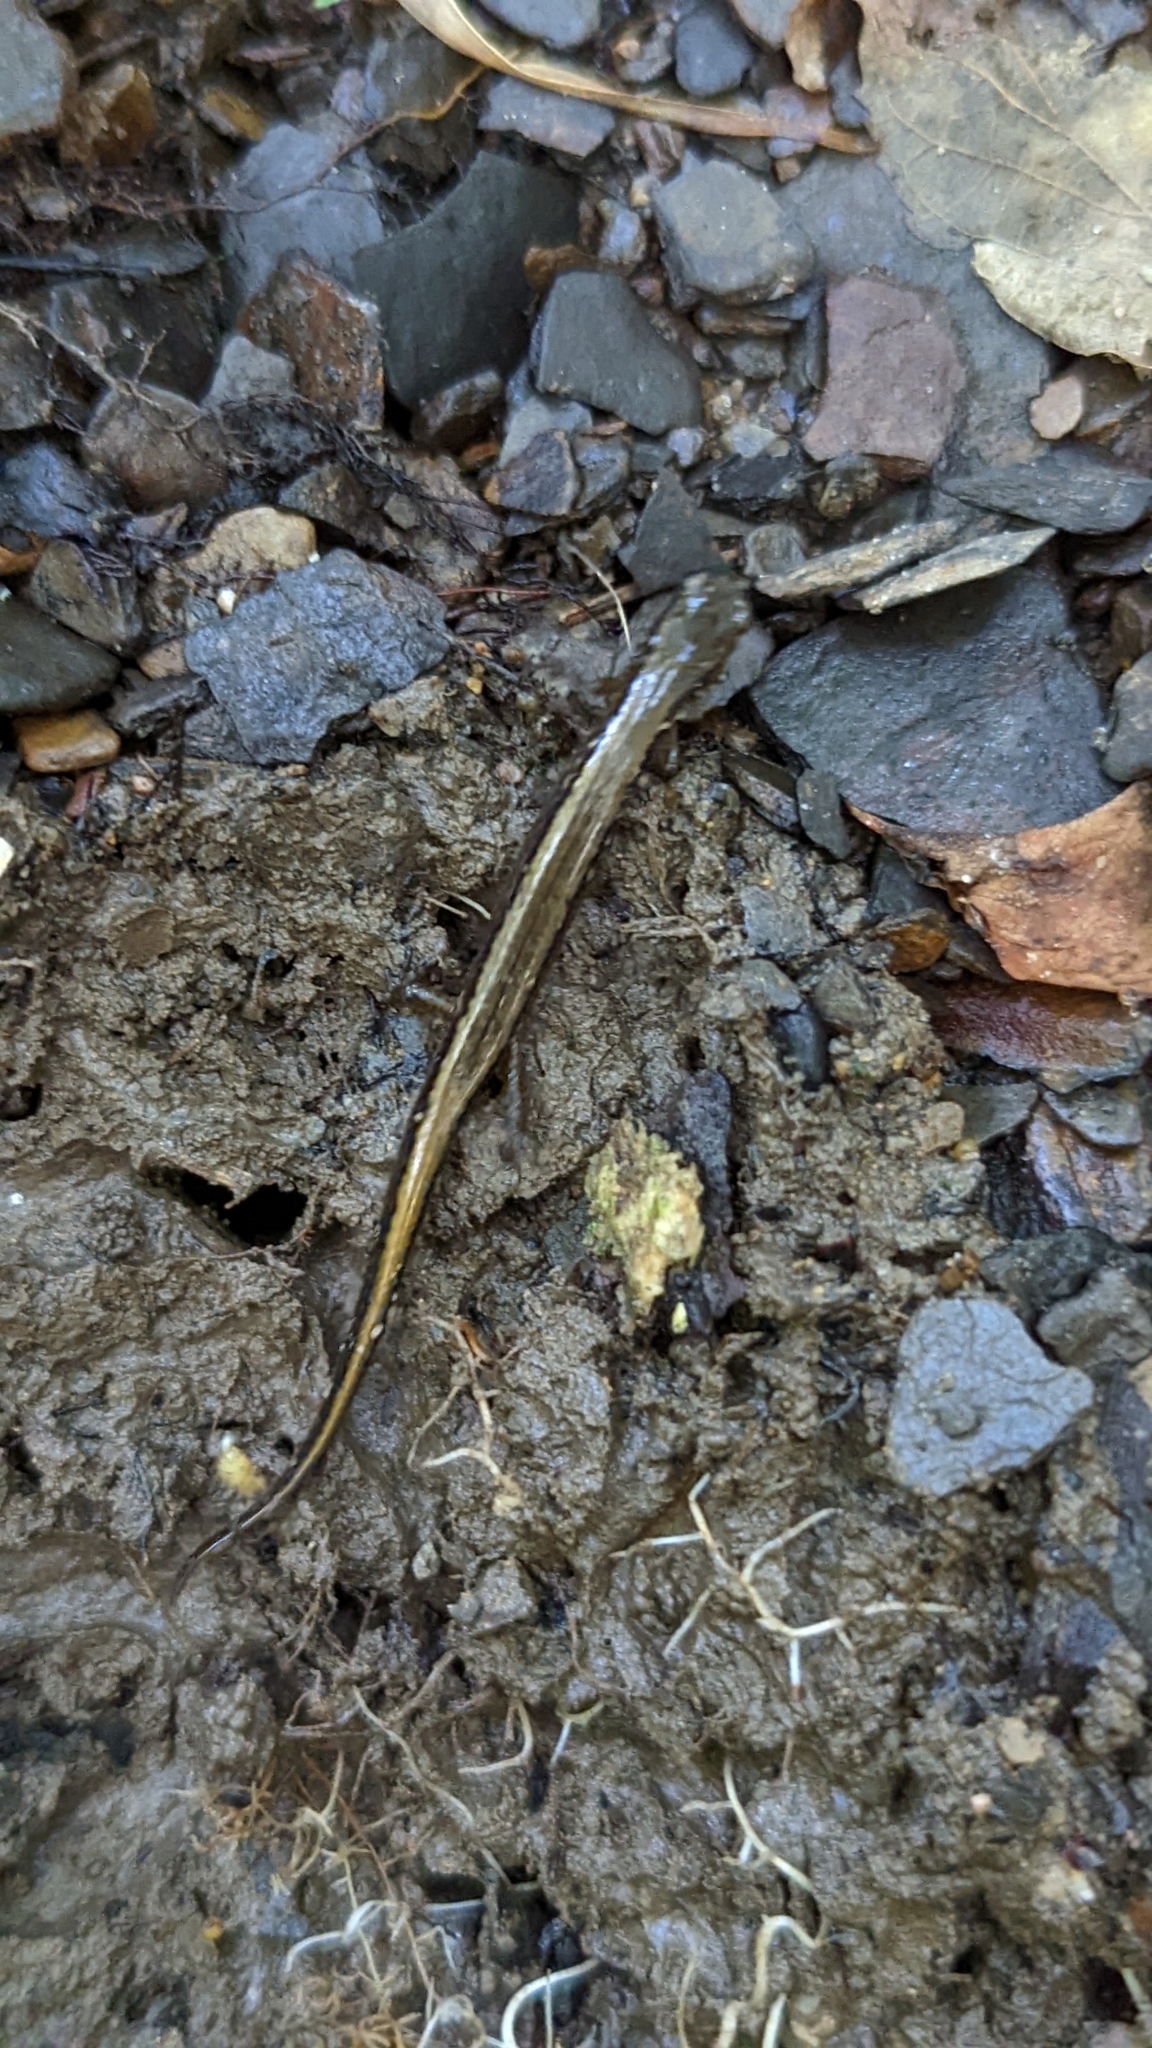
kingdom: Animalia
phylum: Chordata
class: Amphibia
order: Caudata
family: Plethodontidae
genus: Eurycea
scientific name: Eurycea bislineata
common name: Northern two-lined salamander
